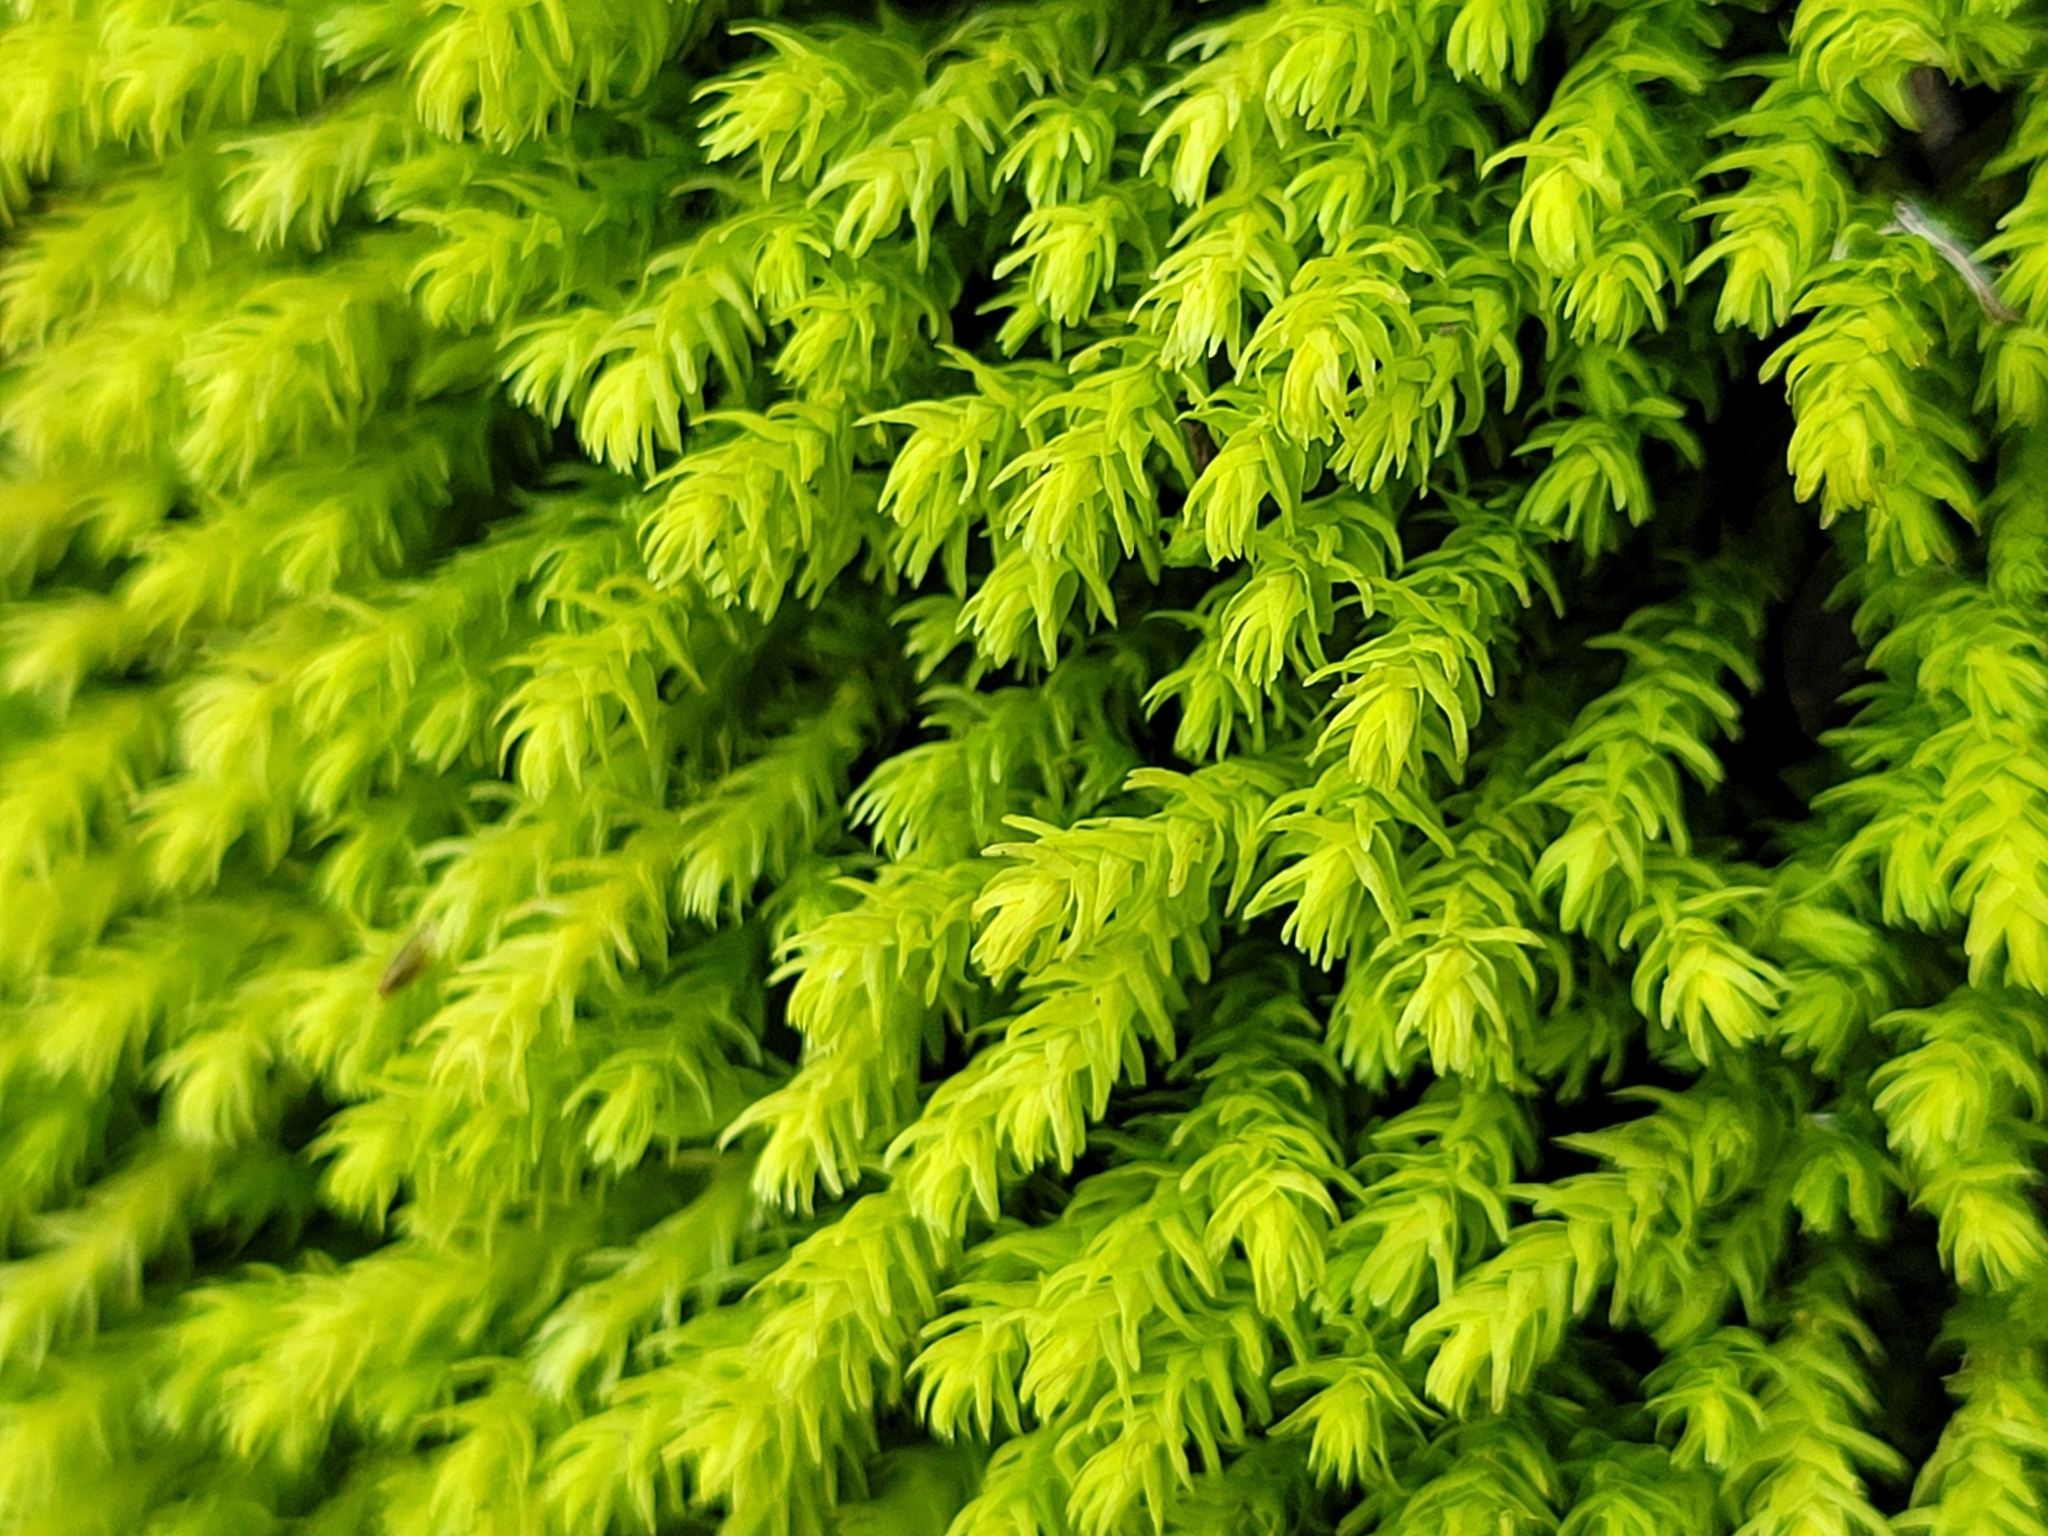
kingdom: Plantae
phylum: Bryophyta
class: Bryopsida
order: Hypnales
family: Anomodontaceae
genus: Anomodon
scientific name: Anomodon viticulosus
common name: Tall anomodon
